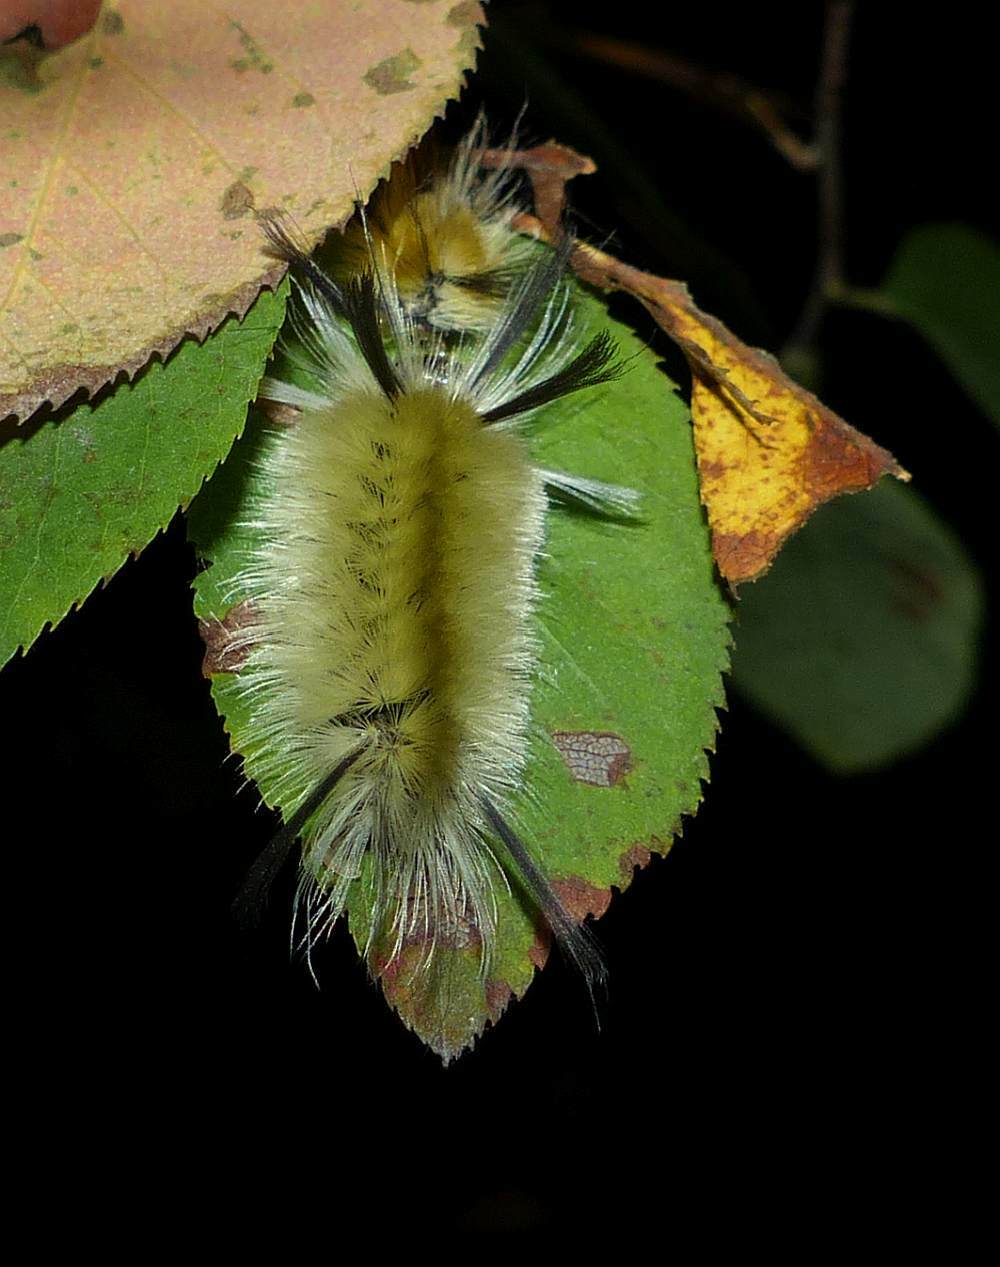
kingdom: Animalia
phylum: Arthropoda
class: Insecta
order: Lepidoptera
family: Erebidae
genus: Halysidota
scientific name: Halysidota tessellaris
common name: Banded tussock moth
